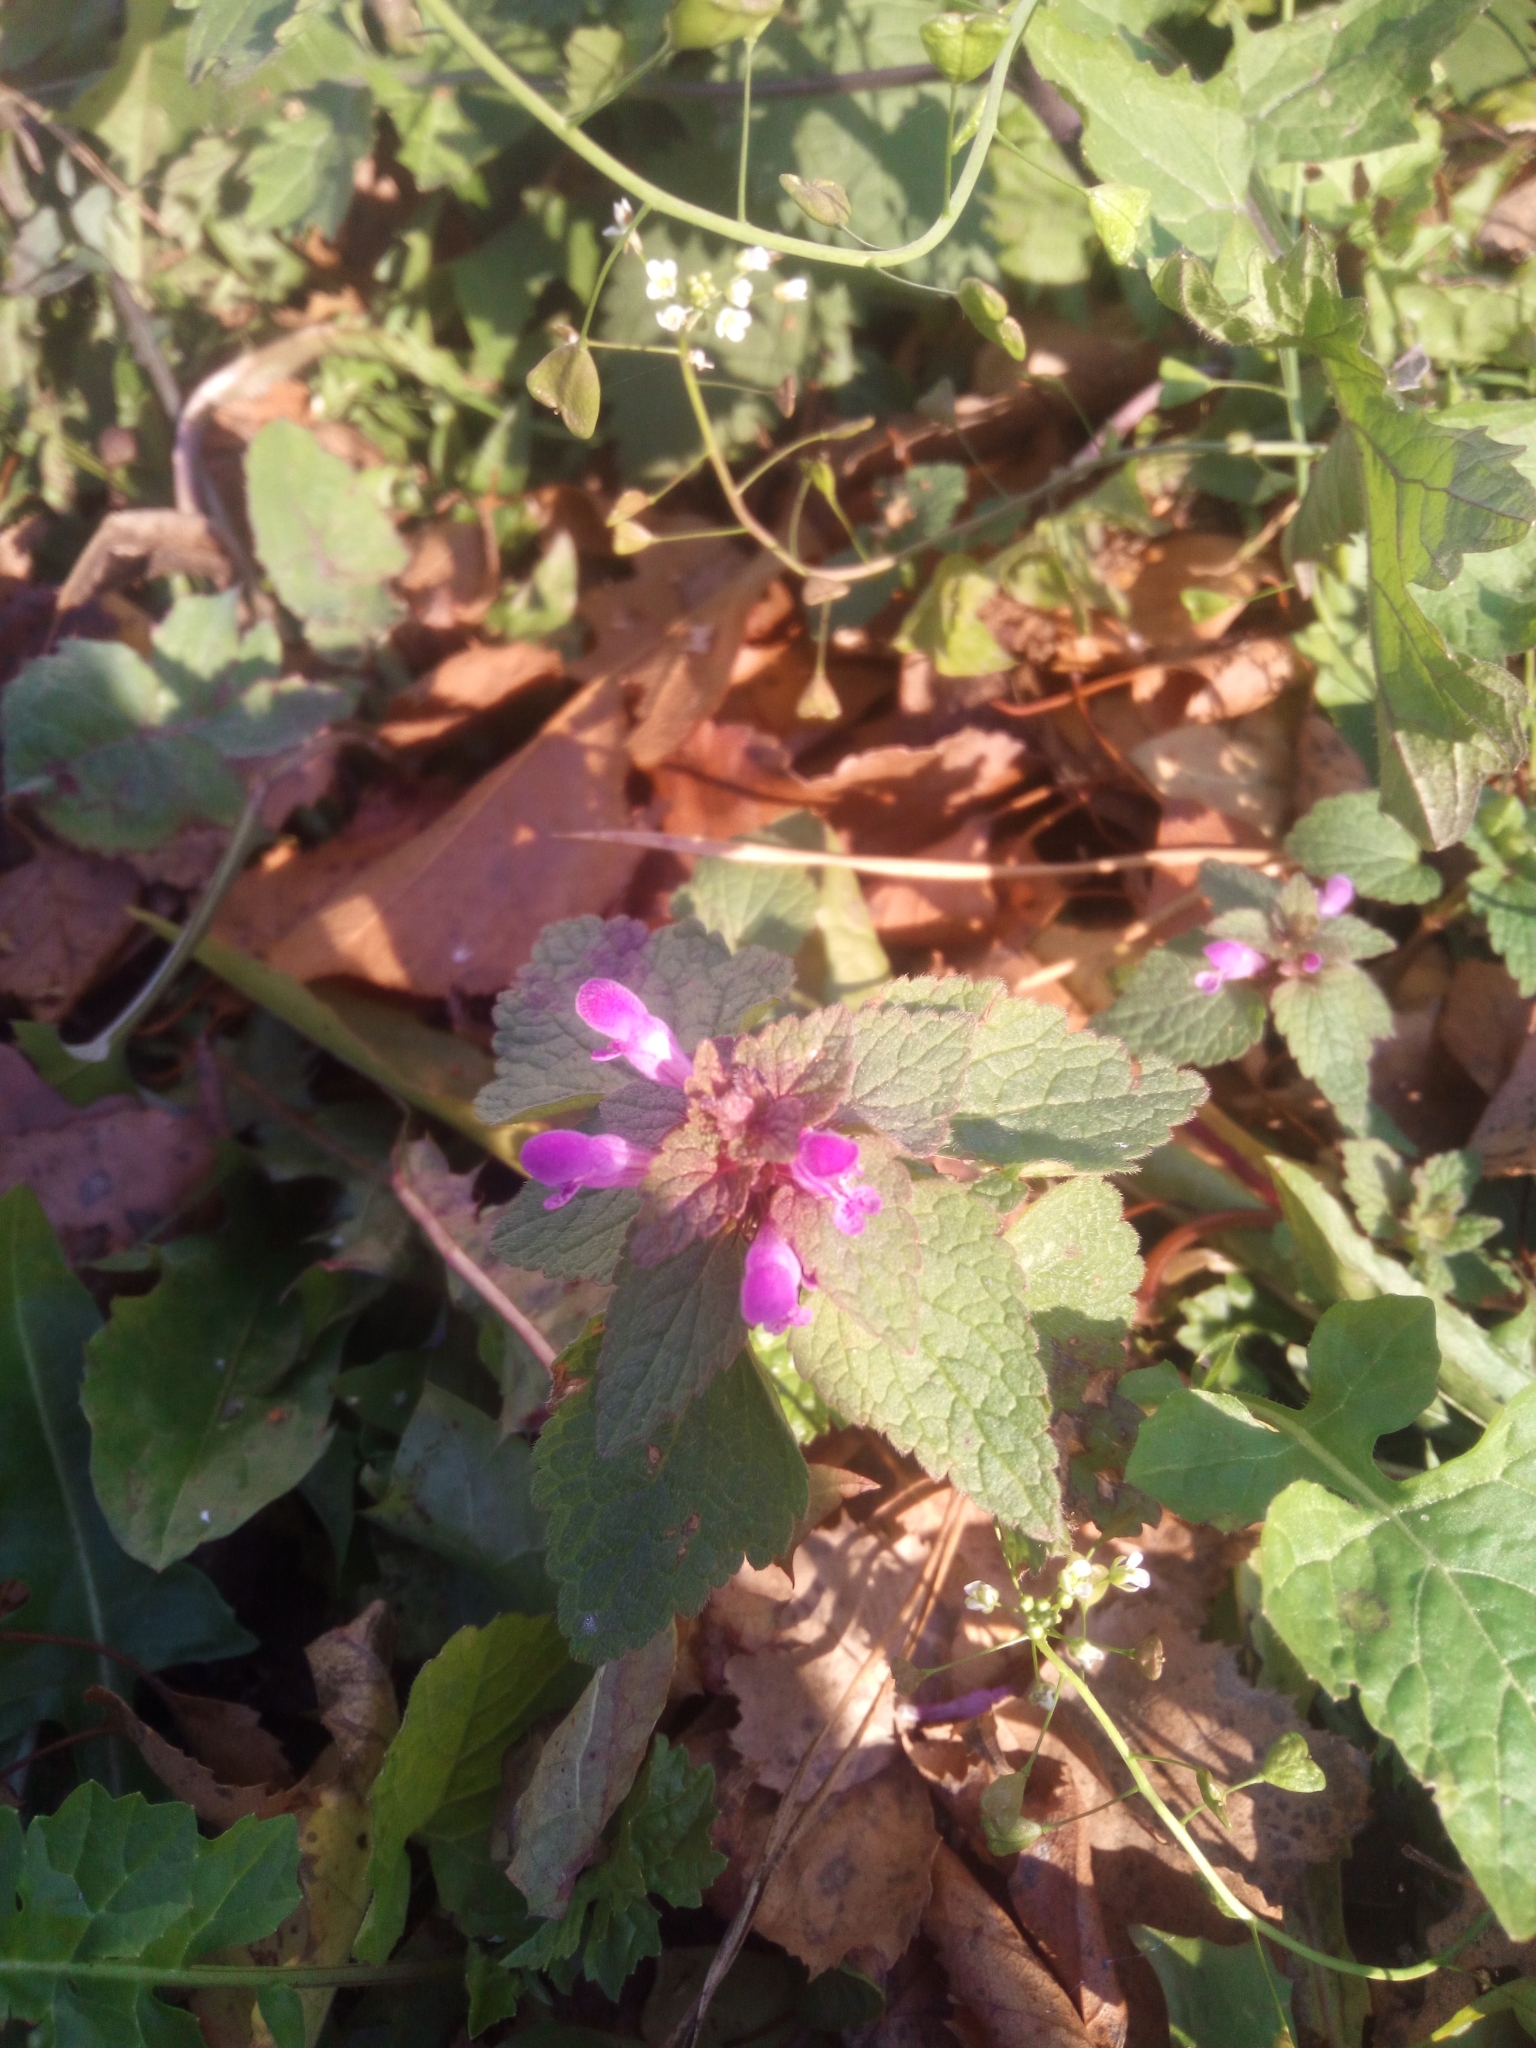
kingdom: Plantae
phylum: Tracheophyta
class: Magnoliopsida
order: Lamiales
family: Lamiaceae
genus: Lamium
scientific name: Lamium maculatum
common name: Spotted dead-nettle
